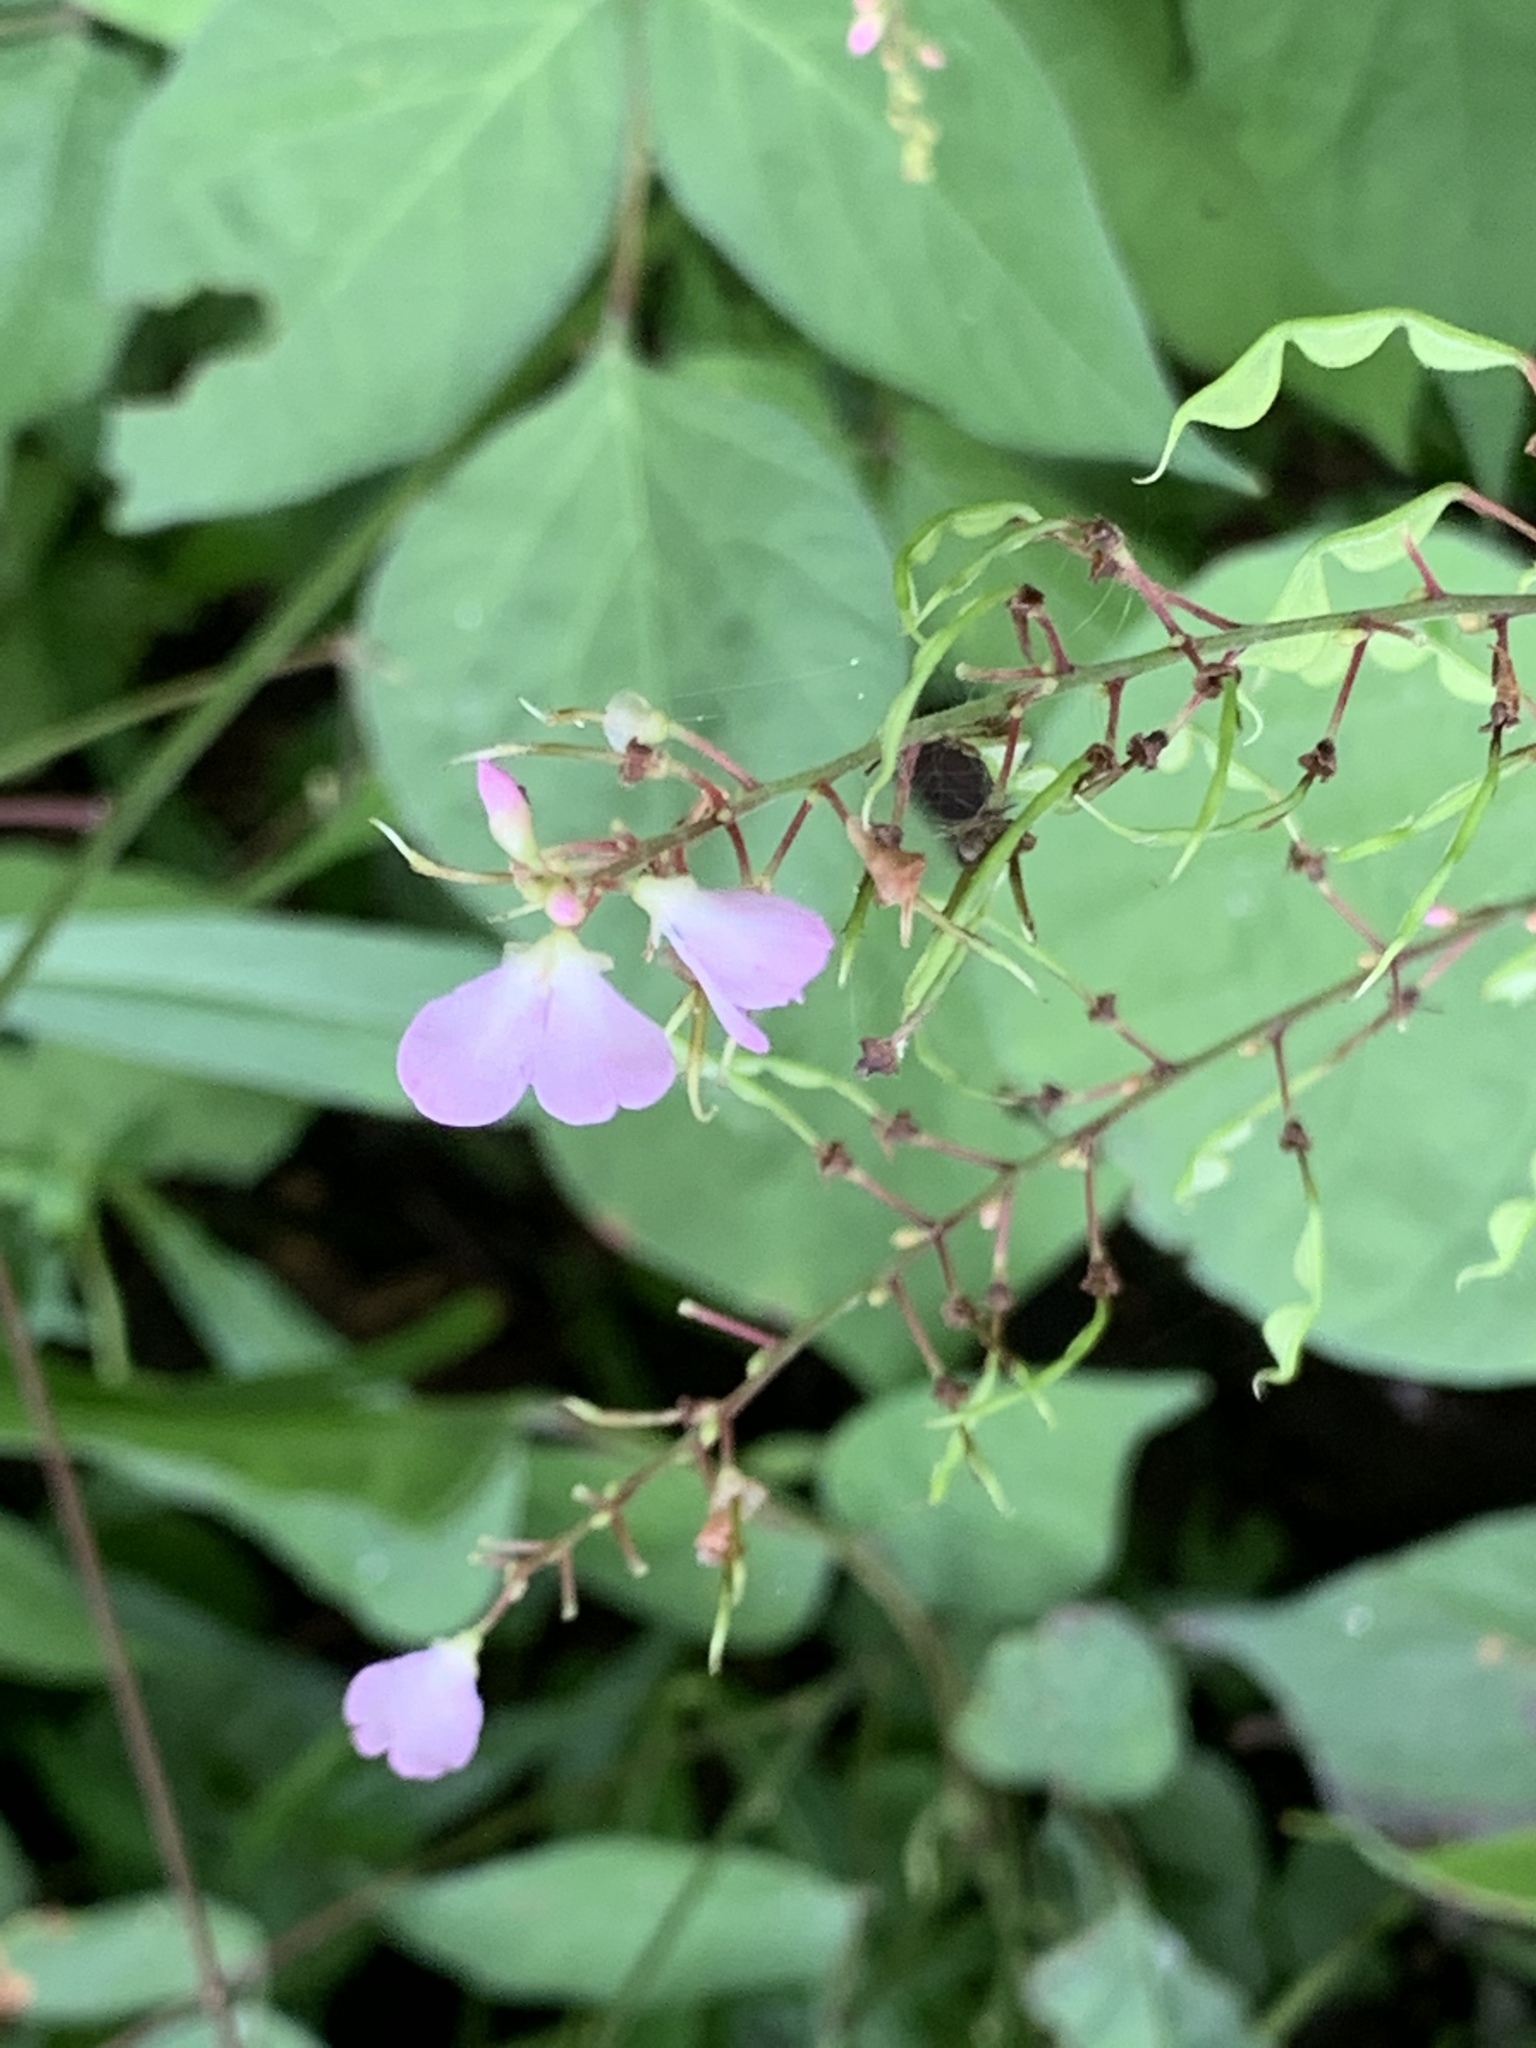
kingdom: Plantae
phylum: Tracheophyta
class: Magnoliopsida
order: Fabales
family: Fabaceae
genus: Hylodesmum
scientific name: Hylodesmum glutinosum
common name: Clustered-leaved tick-trefoil
